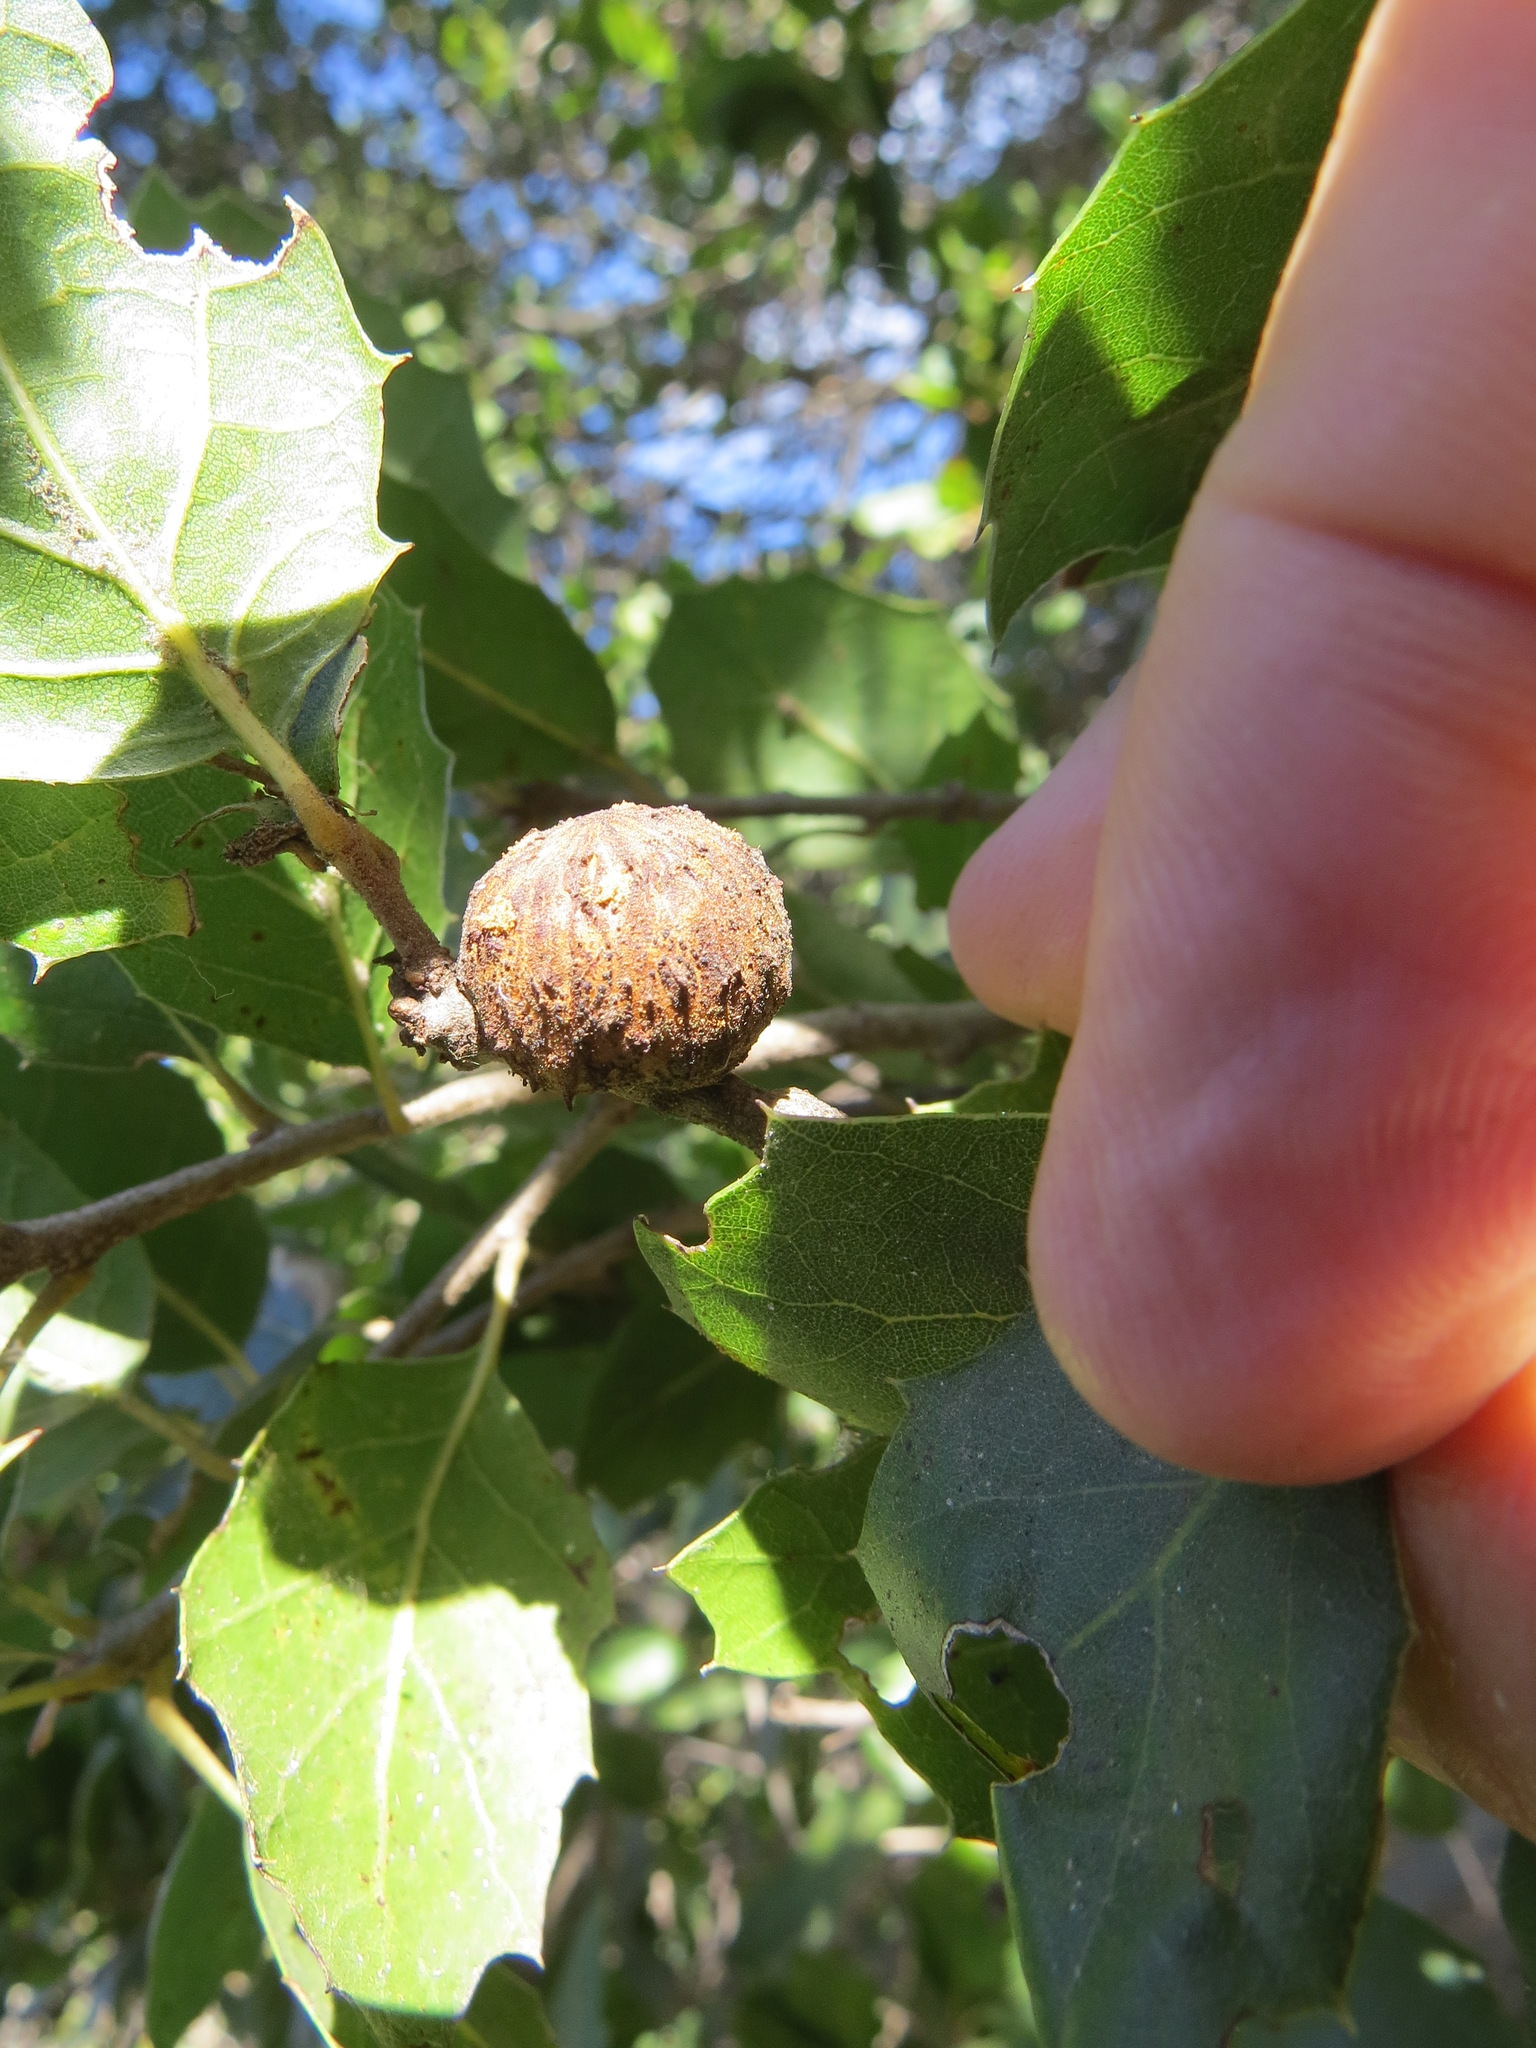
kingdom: Animalia
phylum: Arthropoda
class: Insecta
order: Hymenoptera
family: Cynipidae
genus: Amphibolips
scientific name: Amphibolips quercuspomiformis
